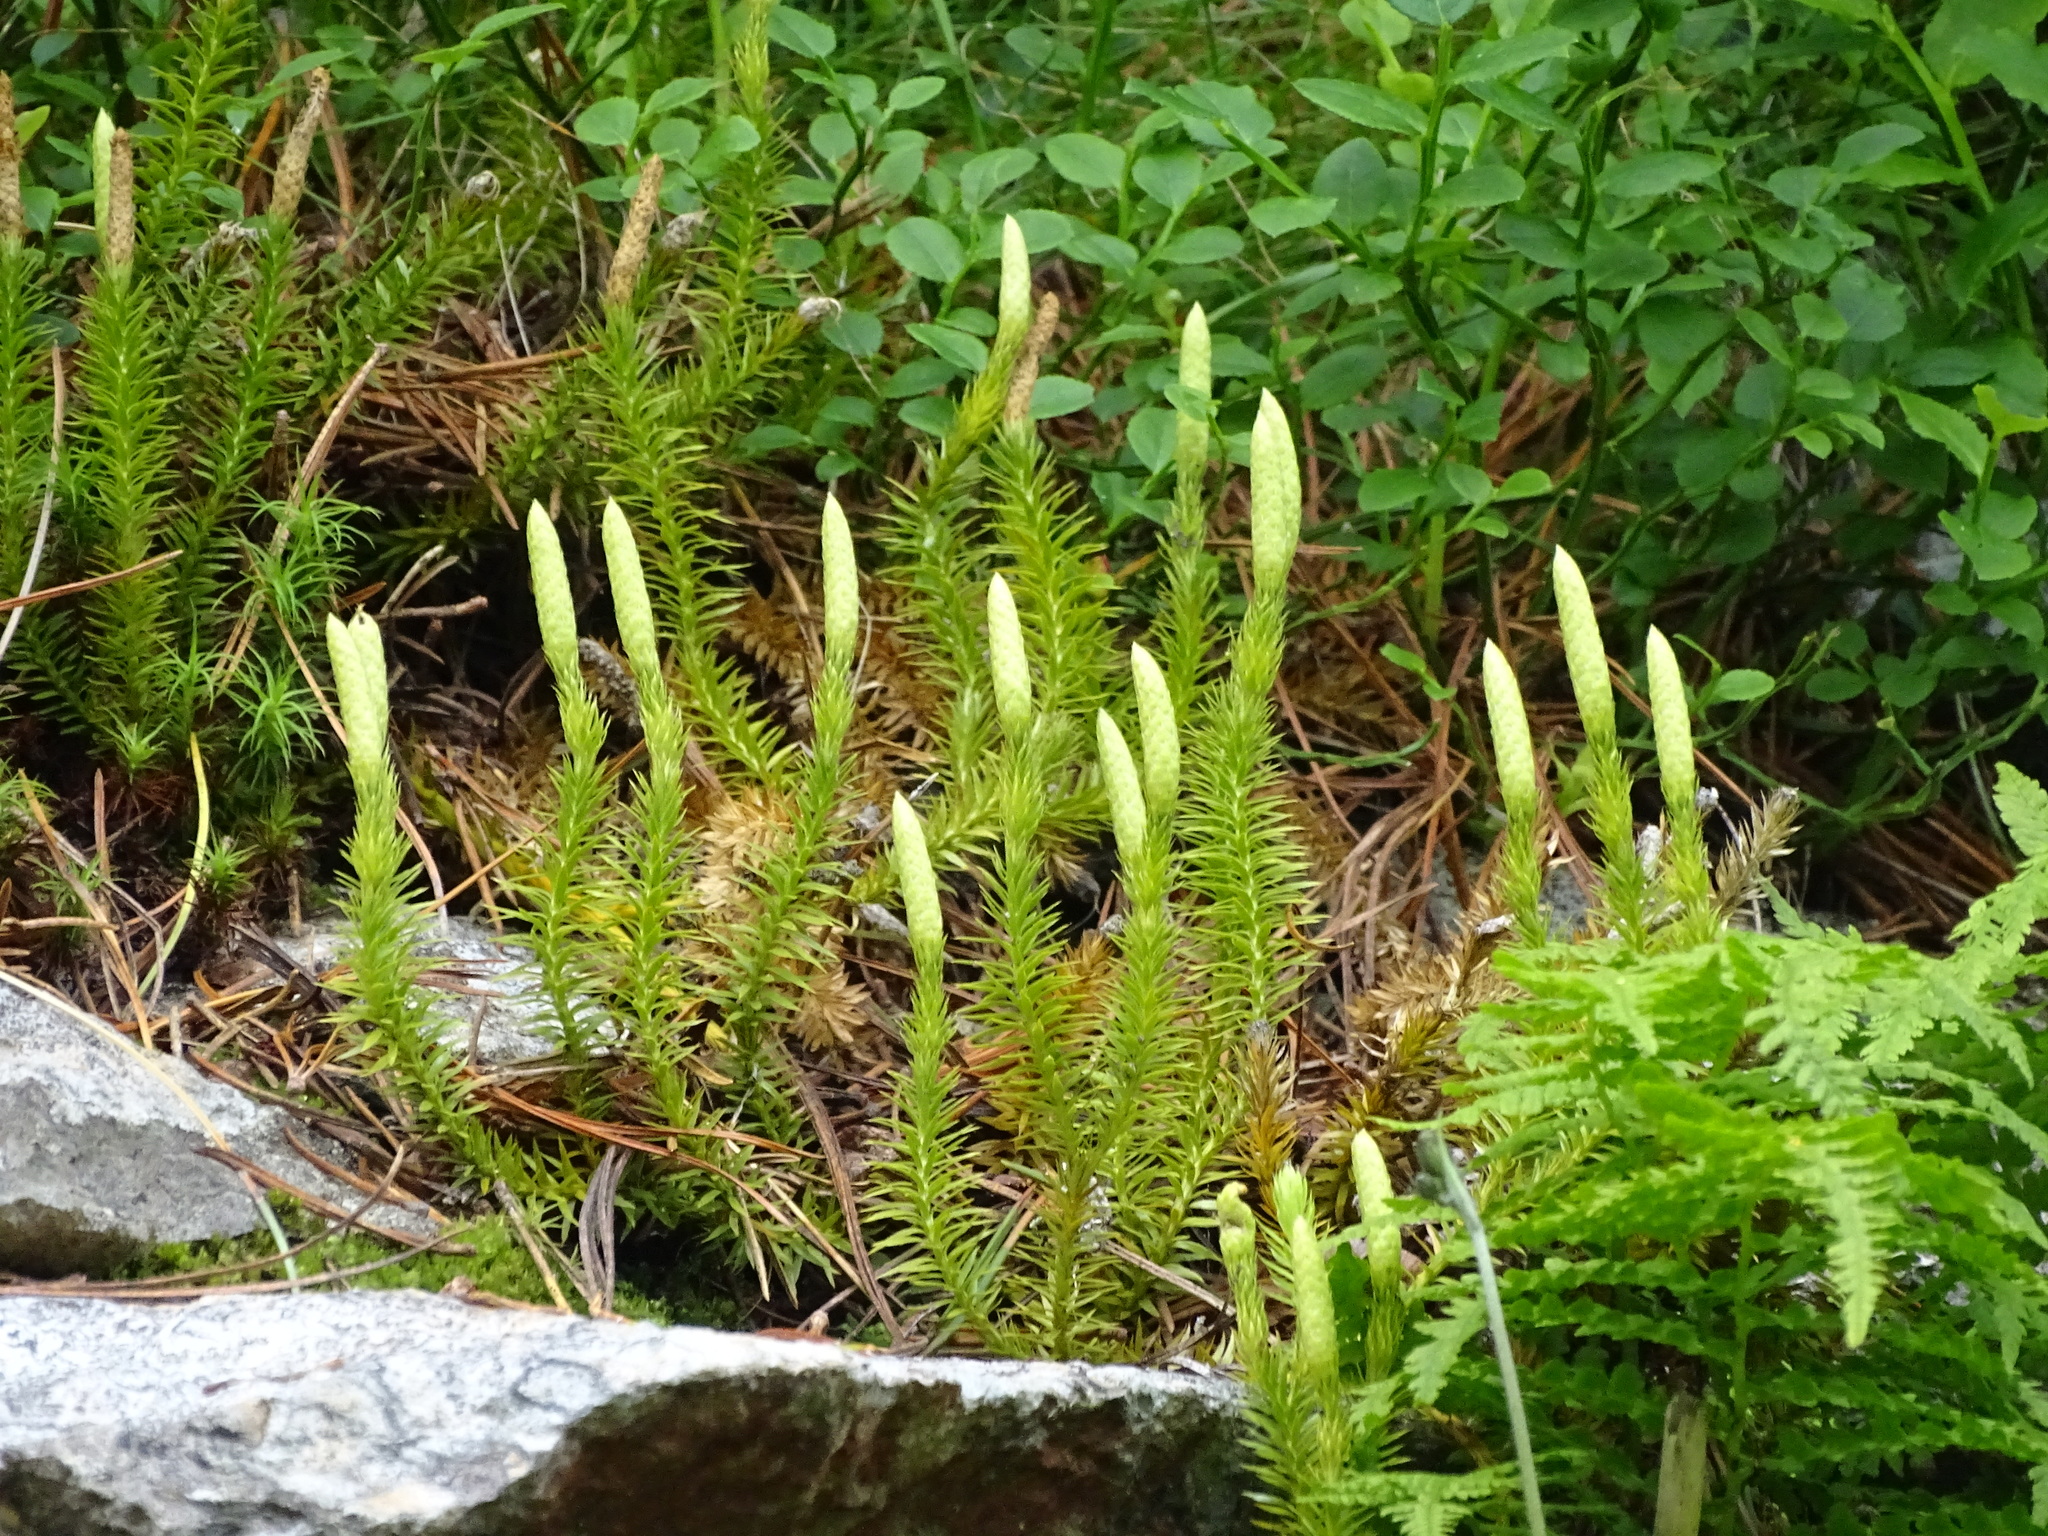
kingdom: Plantae
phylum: Tracheophyta
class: Lycopodiopsida
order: Lycopodiales
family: Lycopodiaceae
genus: Spinulum
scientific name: Spinulum annotinum
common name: Interrupted club-moss
